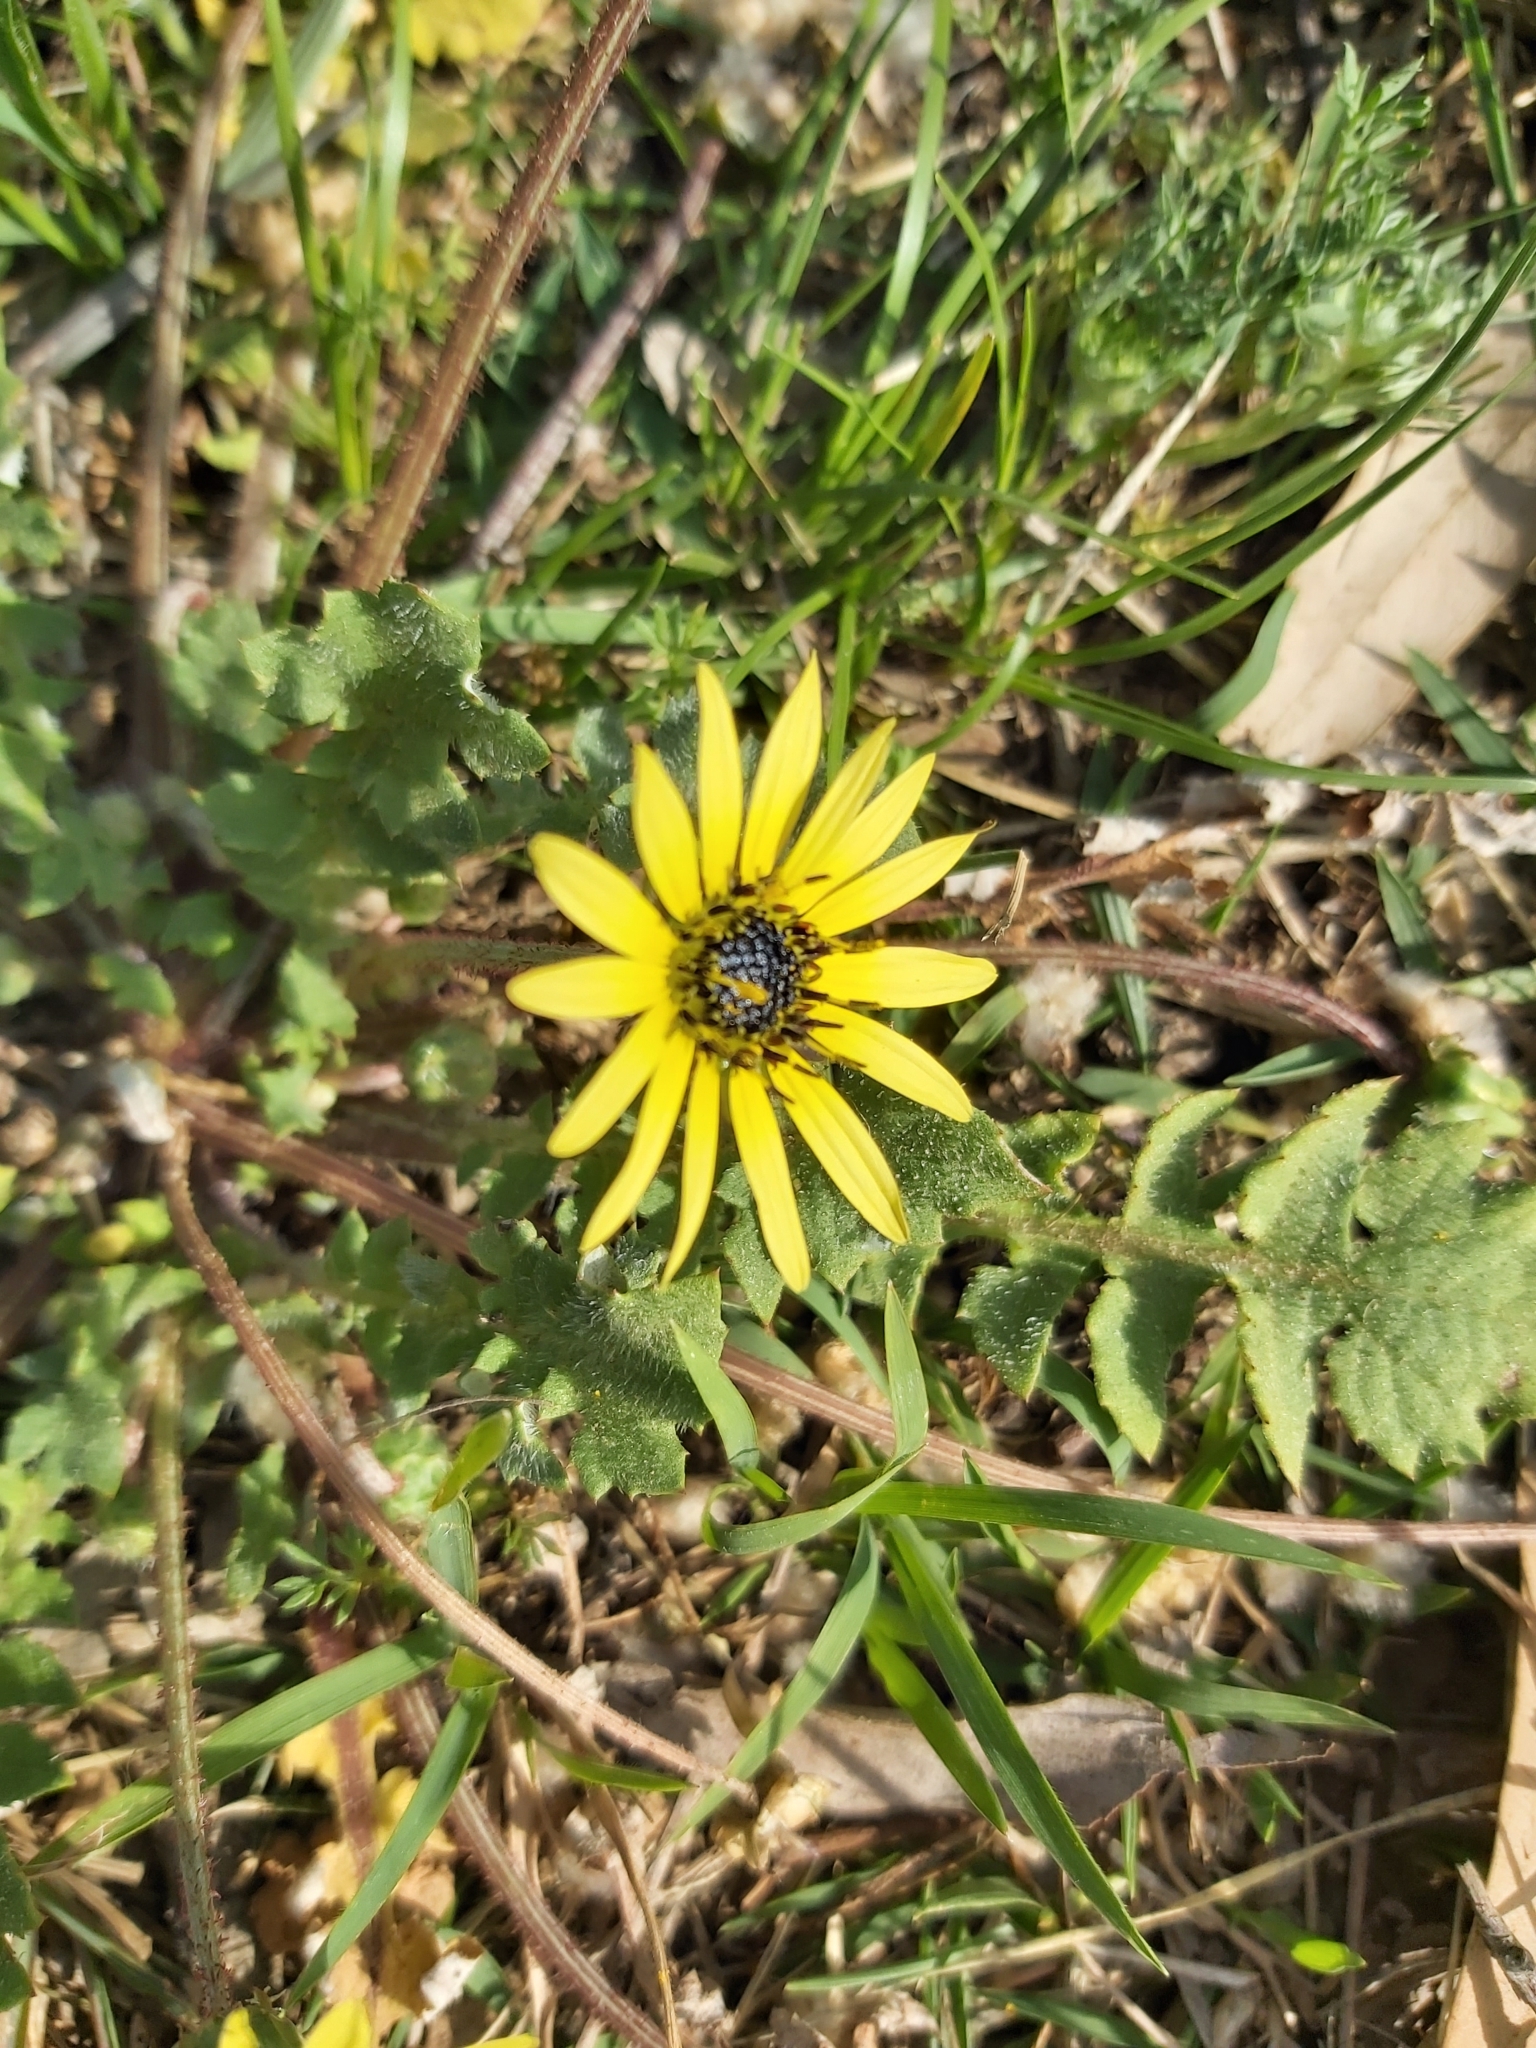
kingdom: Plantae
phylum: Tracheophyta
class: Magnoliopsida
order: Asterales
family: Asteraceae
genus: Arctotheca
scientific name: Arctotheca calendula
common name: Capeweed
